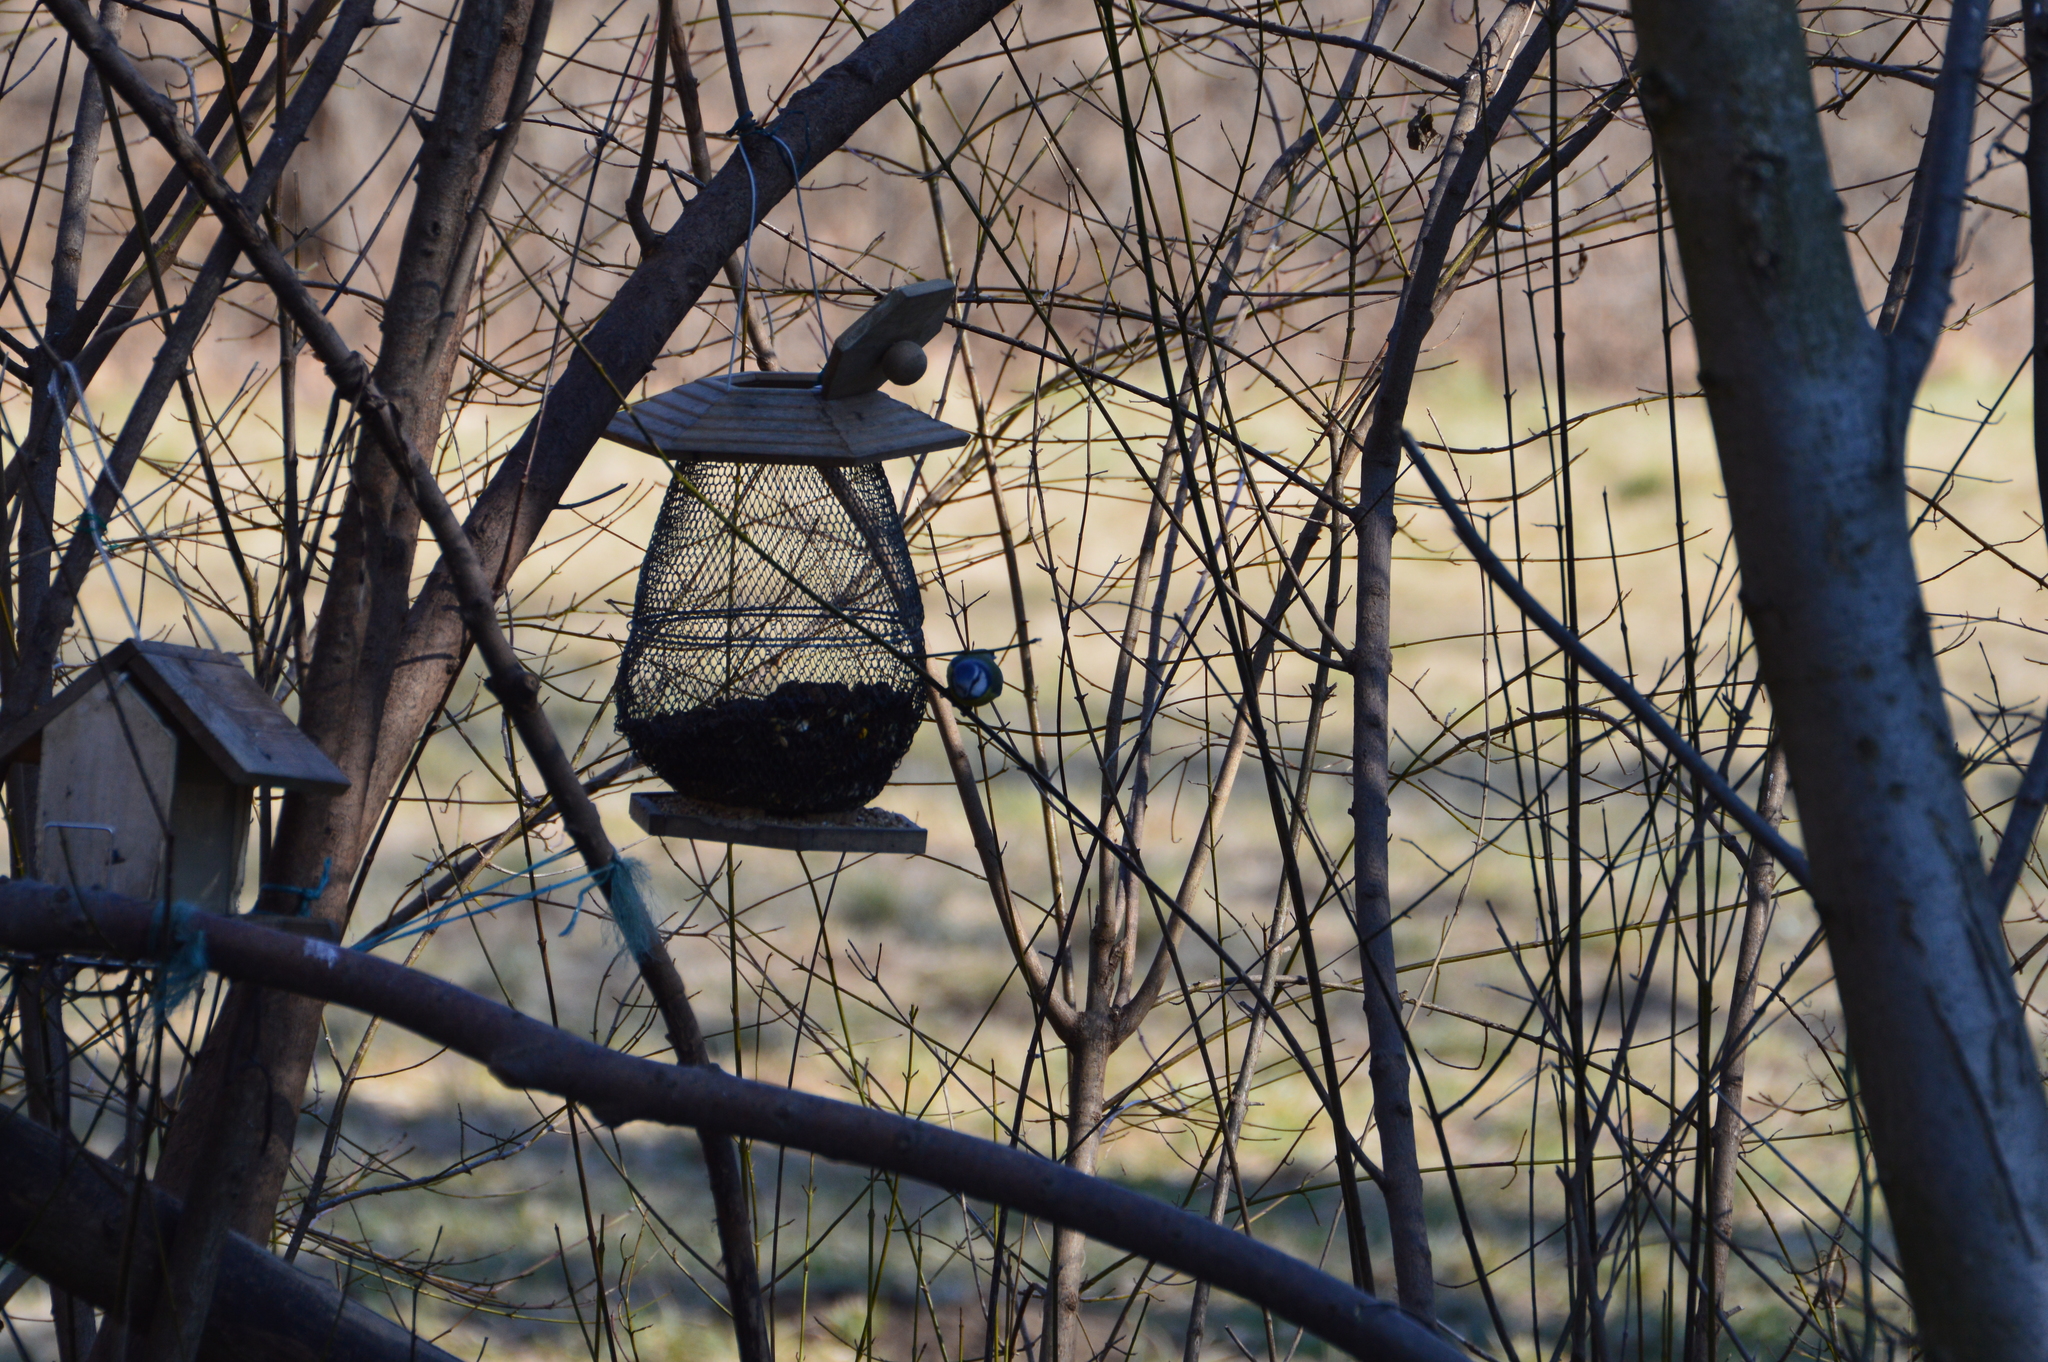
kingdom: Animalia
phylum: Chordata
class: Aves
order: Passeriformes
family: Paridae
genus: Cyanistes
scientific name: Cyanistes caeruleus
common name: Eurasian blue tit
